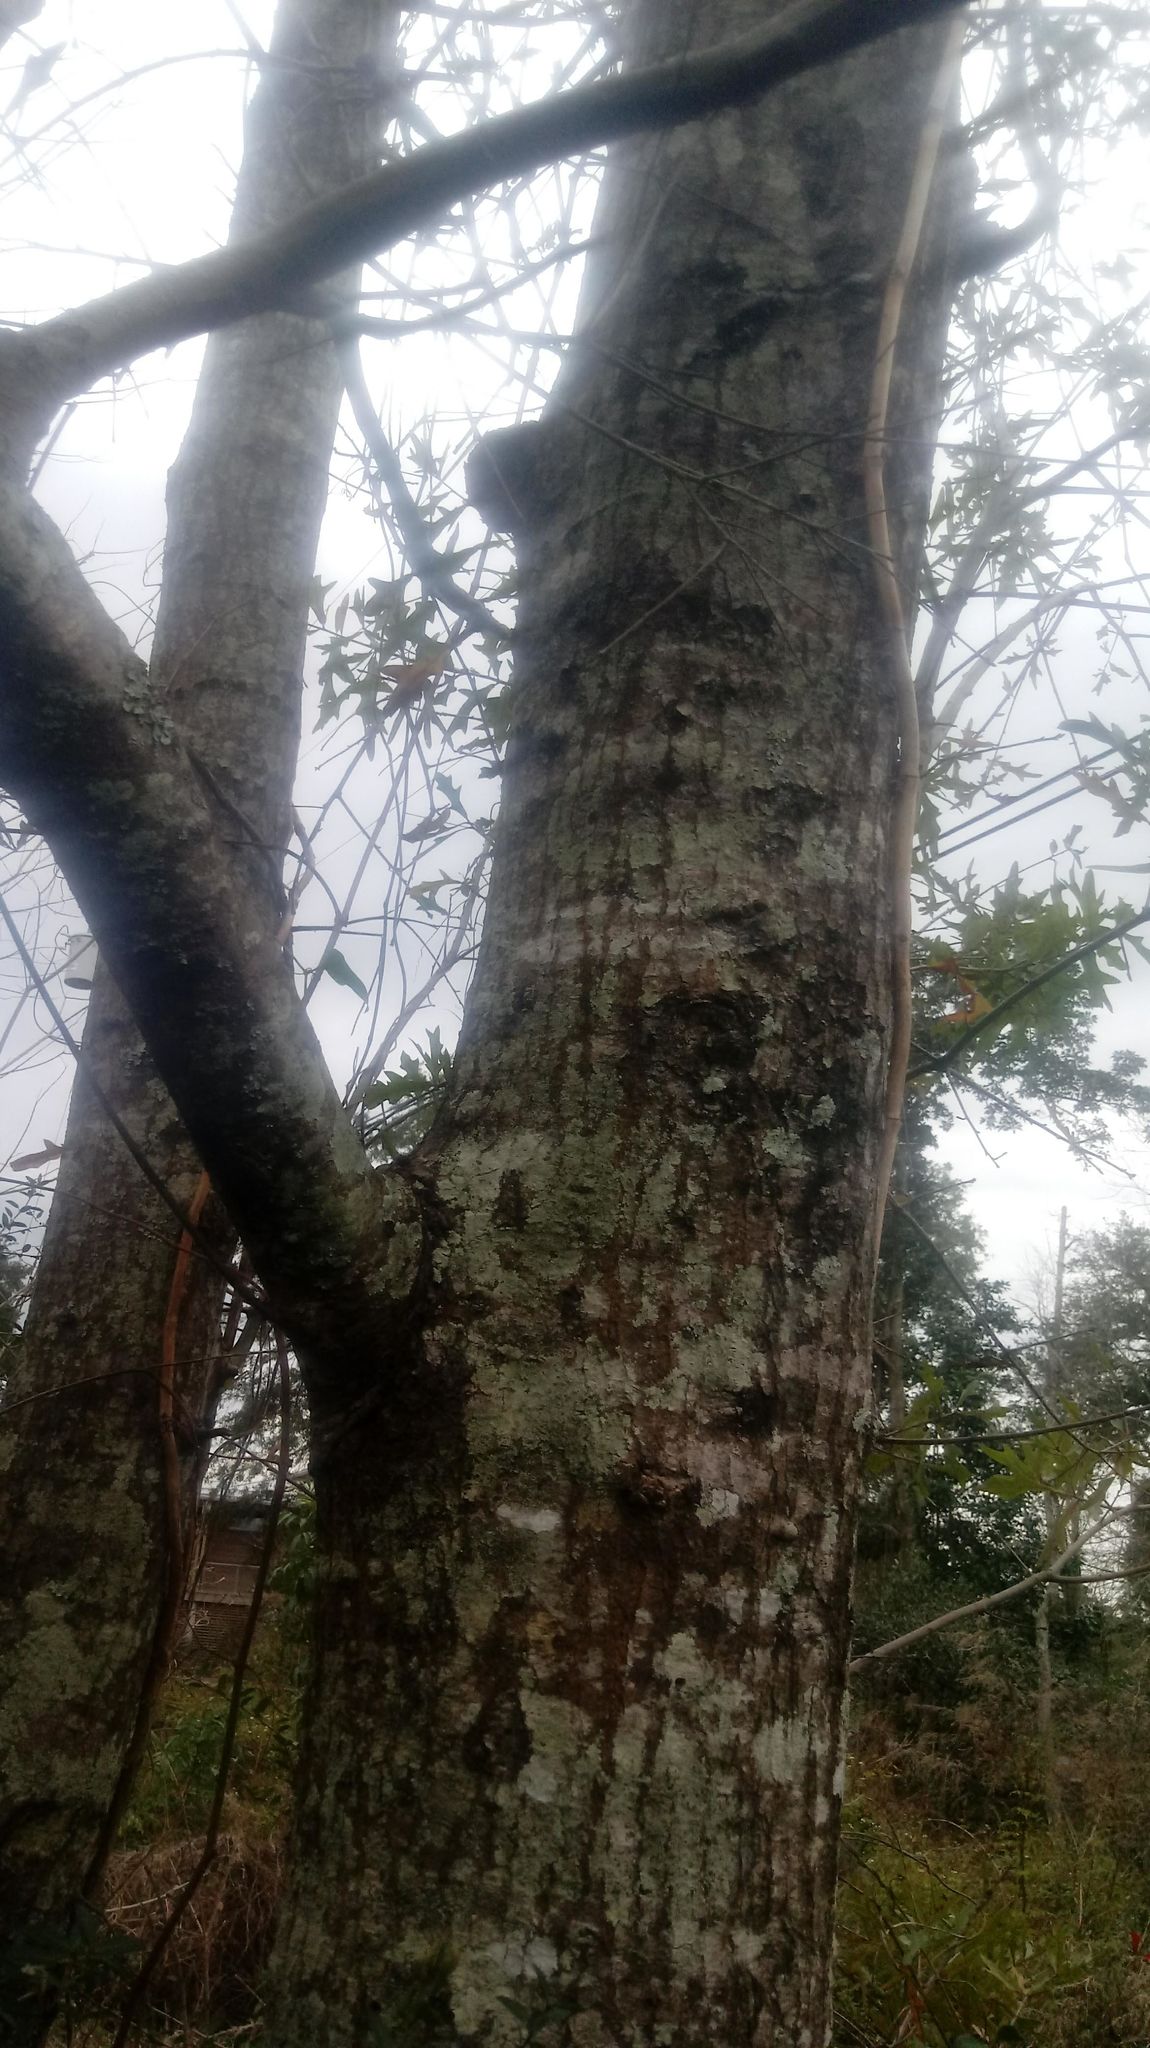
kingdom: Plantae
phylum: Tracheophyta
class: Magnoliopsida
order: Fagales
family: Fagaceae
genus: Quercus
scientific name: Quercus nigra
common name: Water oak
